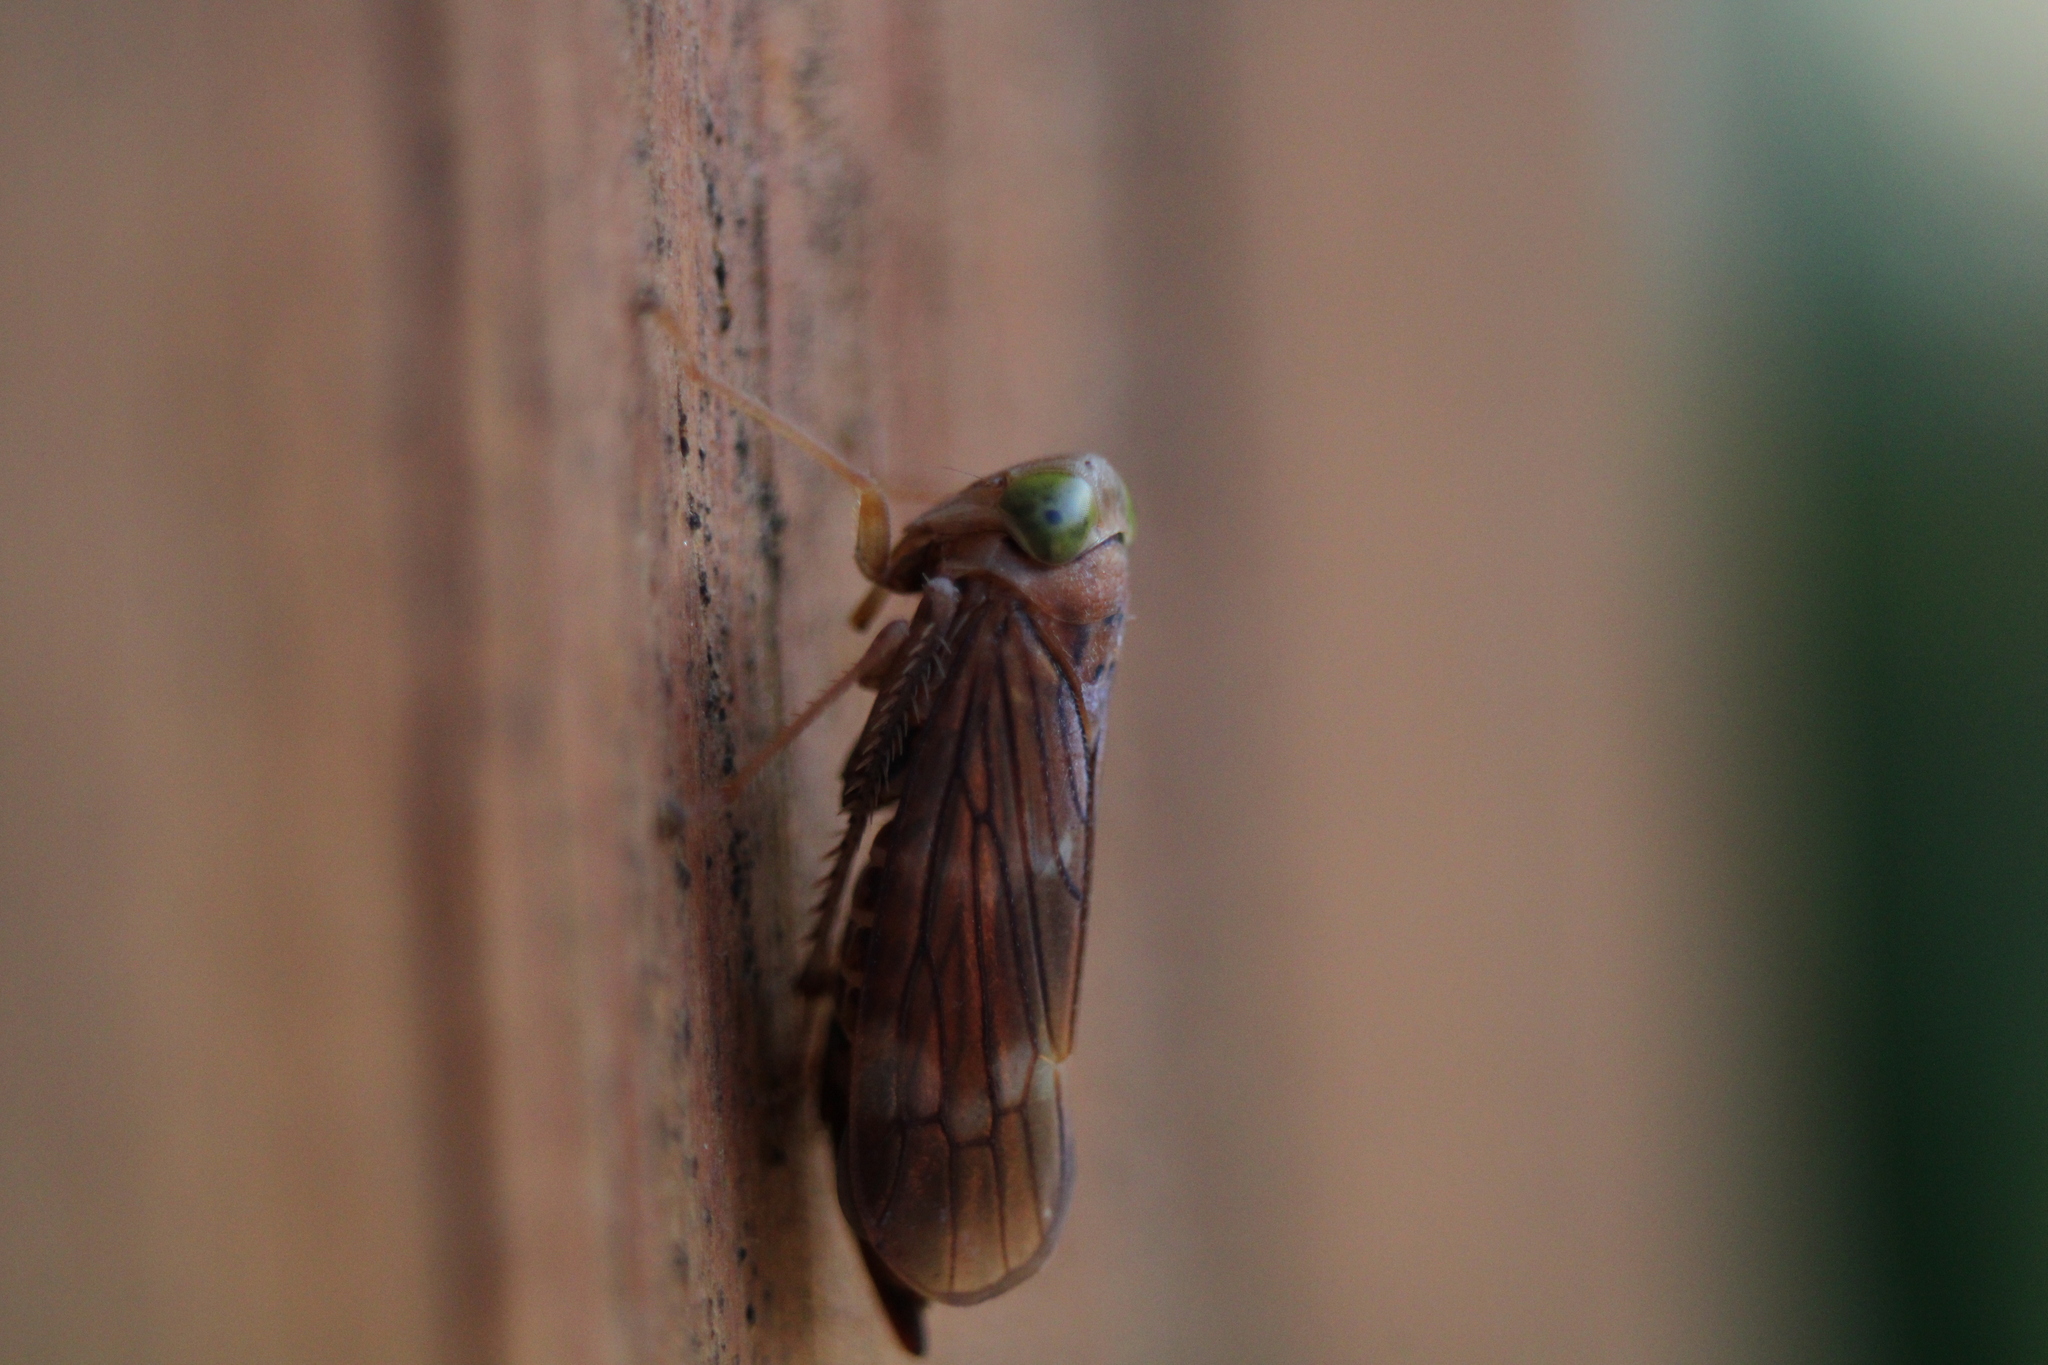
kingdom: Animalia
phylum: Arthropoda
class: Insecta
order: Hemiptera
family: Cicadellidae
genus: Jikradia
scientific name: Jikradia olitoria
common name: Coppery leafhopper
